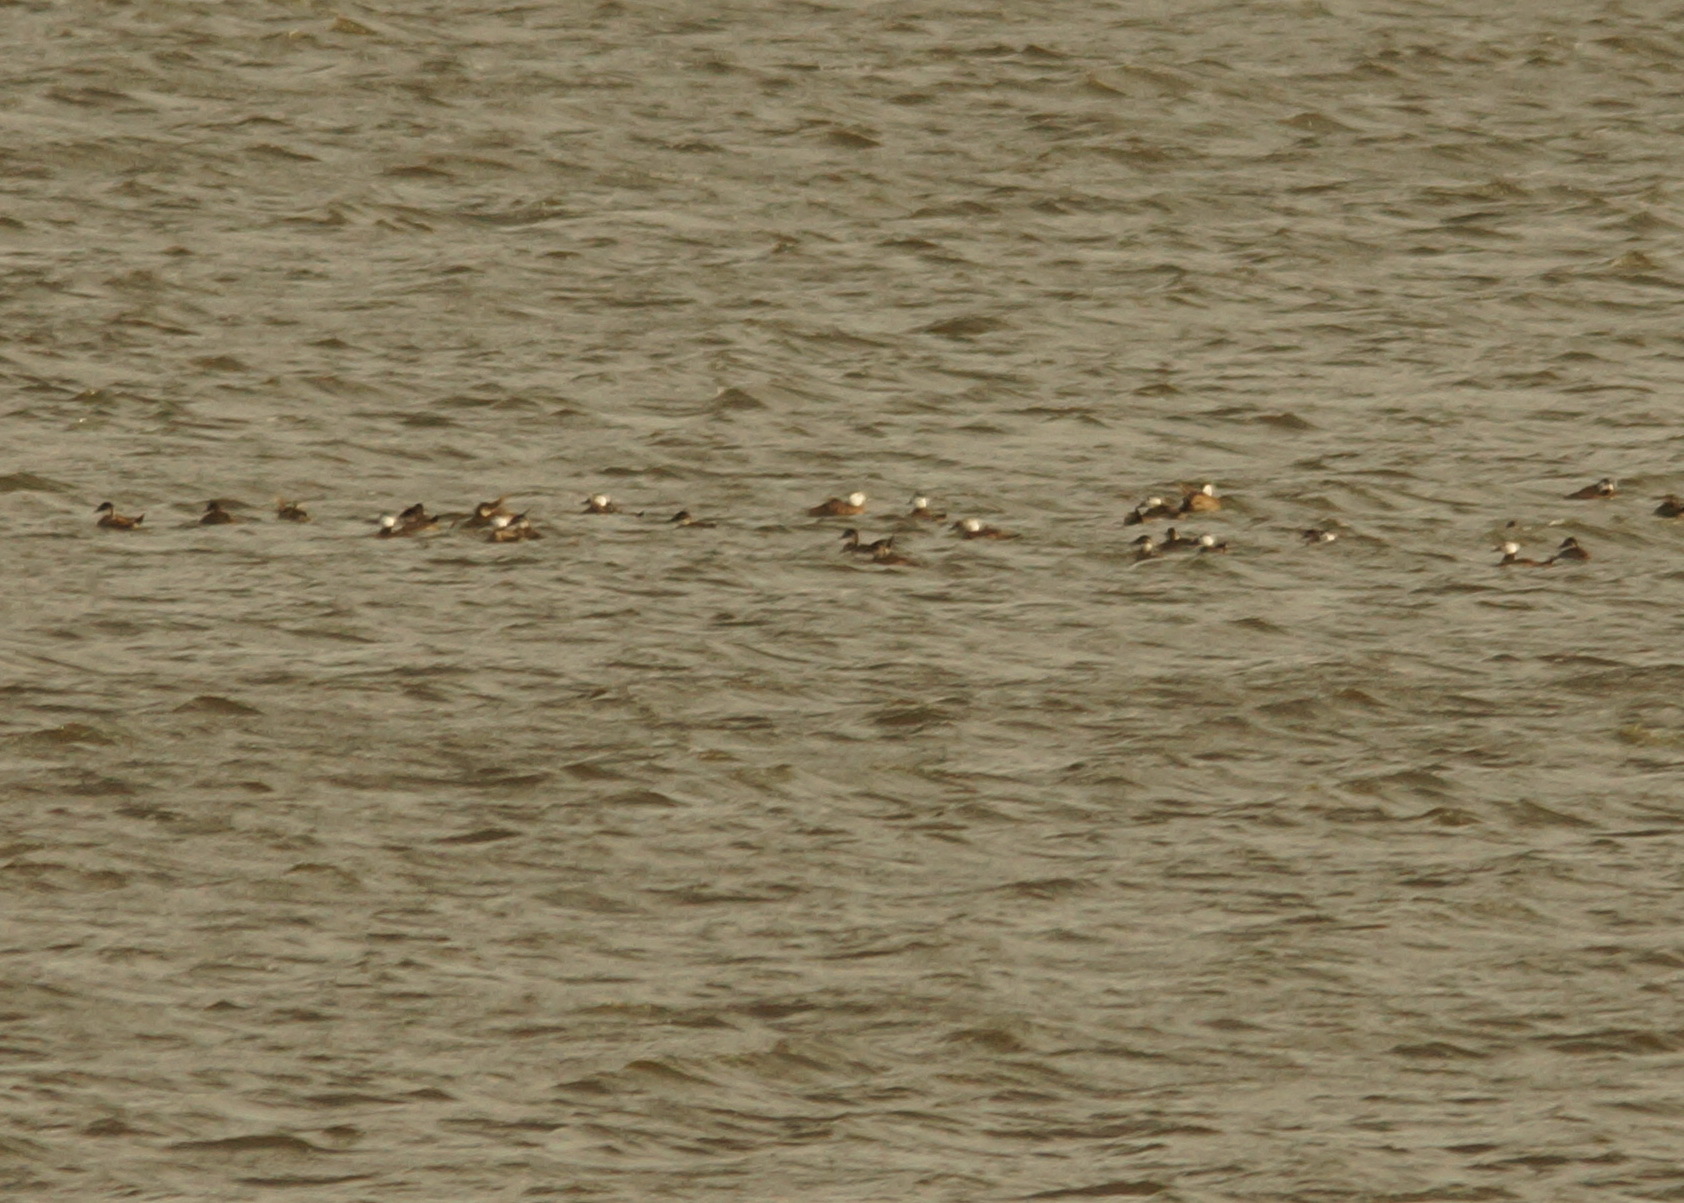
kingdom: Animalia
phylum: Chordata
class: Aves
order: Anseriformes
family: Anatidae
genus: Oxyura
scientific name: Oxyura leucocephala
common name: White-headed duck
